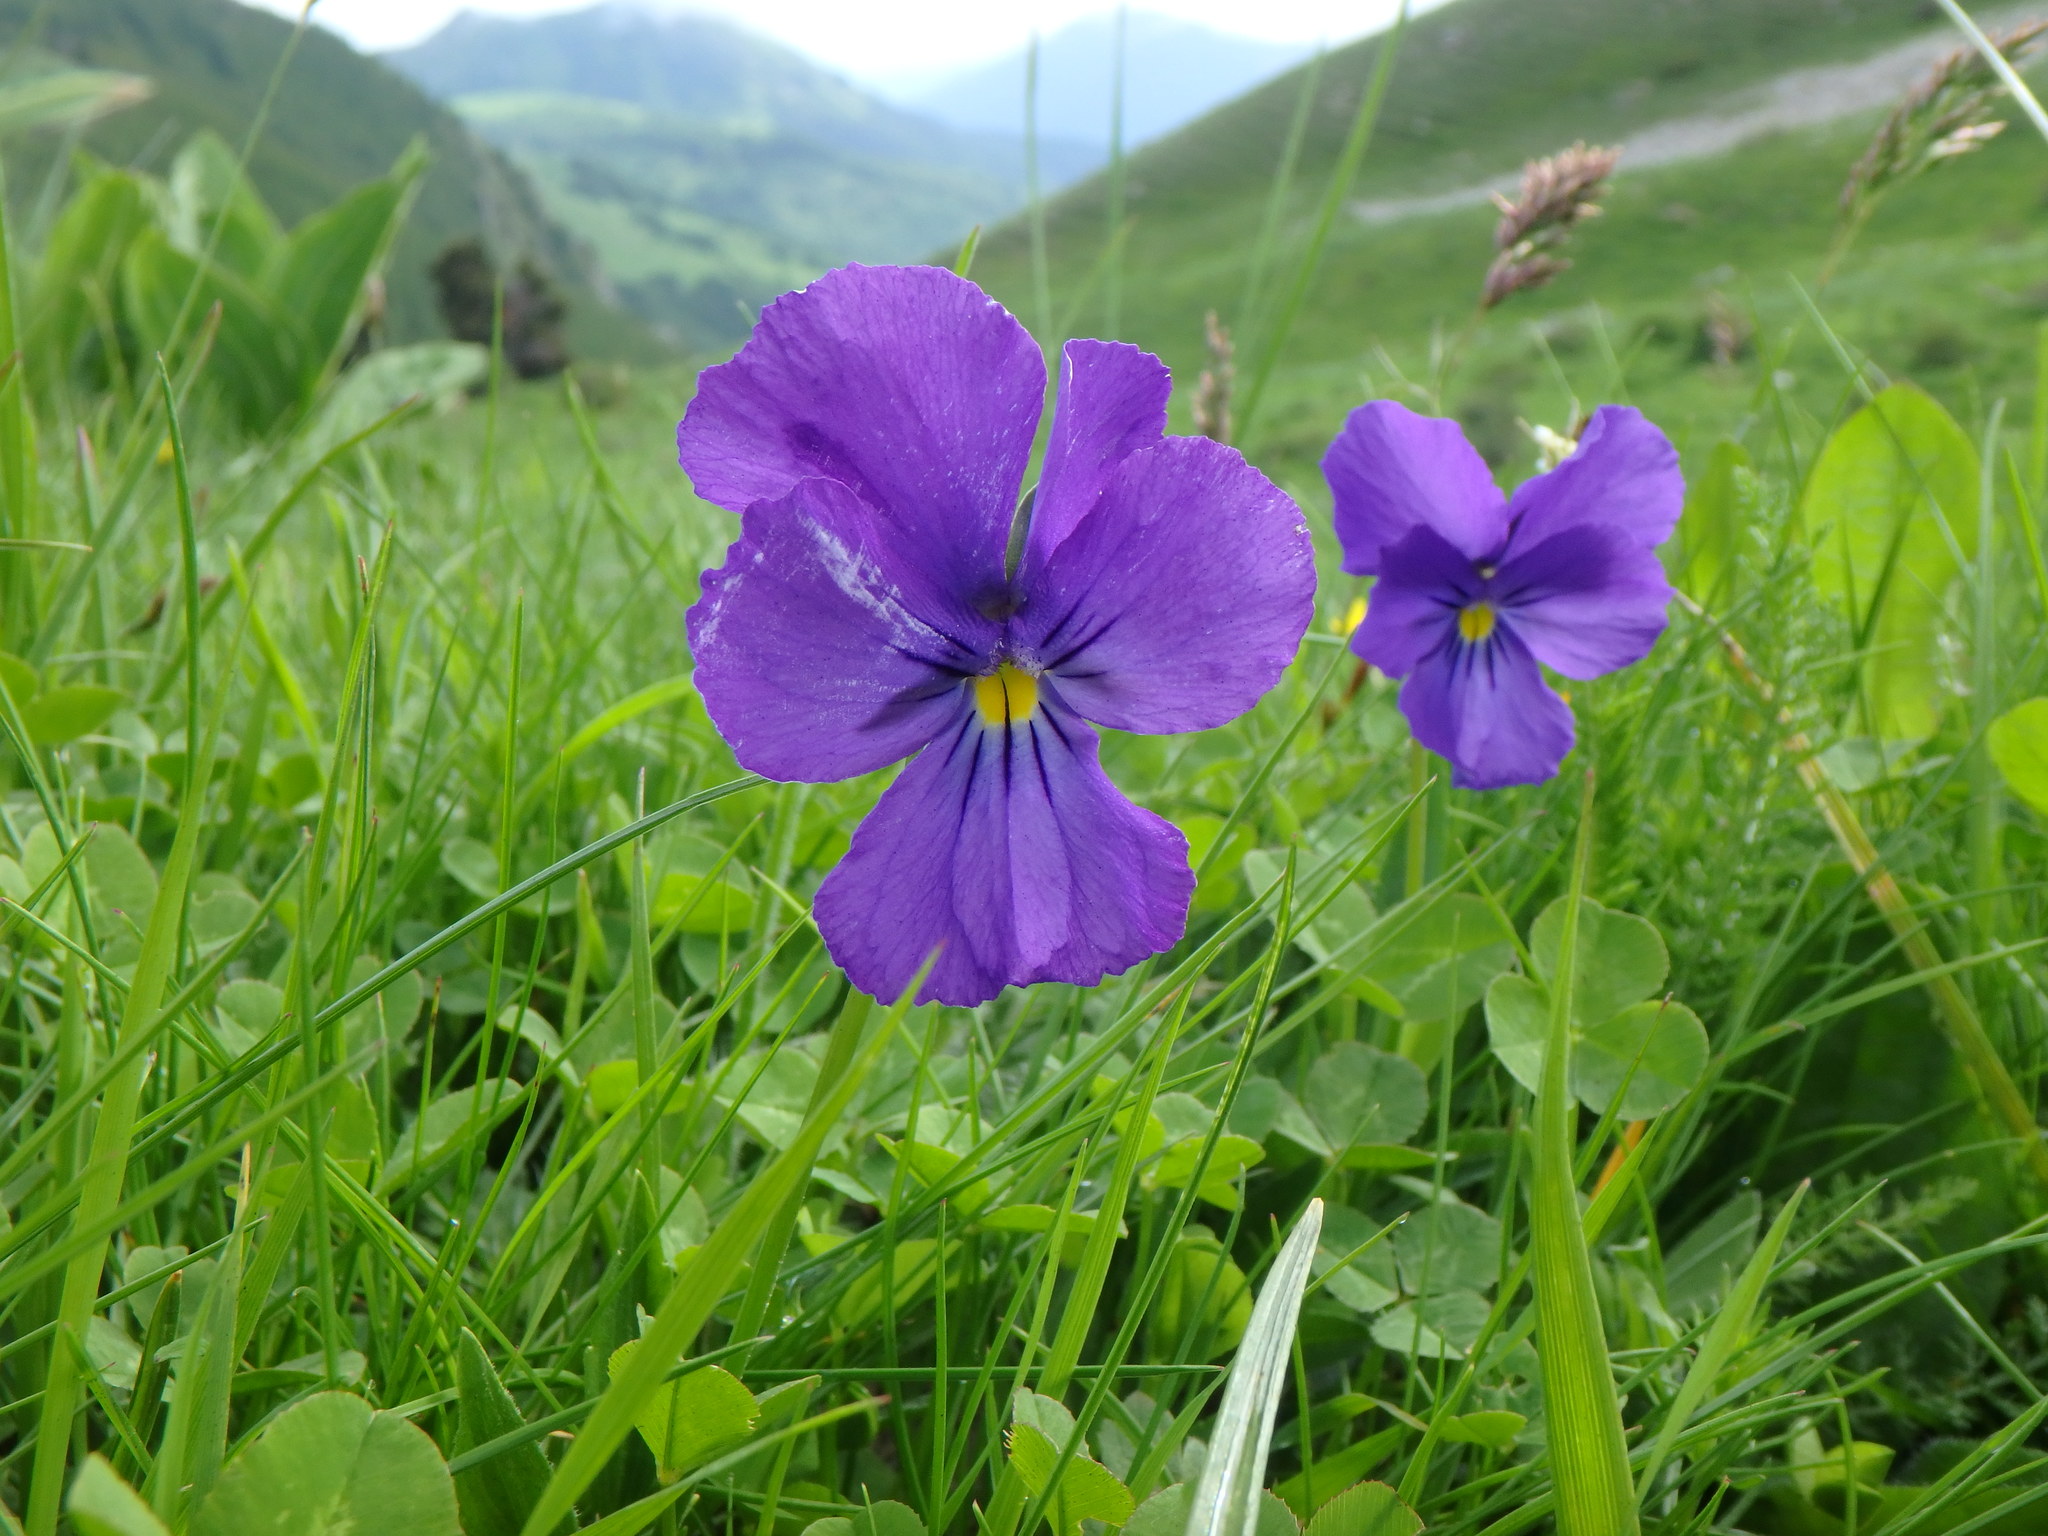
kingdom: Plantae
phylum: Tracheophyta
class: Magnoliopsida
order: Malpighiales
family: Violaceae
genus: Viola
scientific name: Viola calcarata
